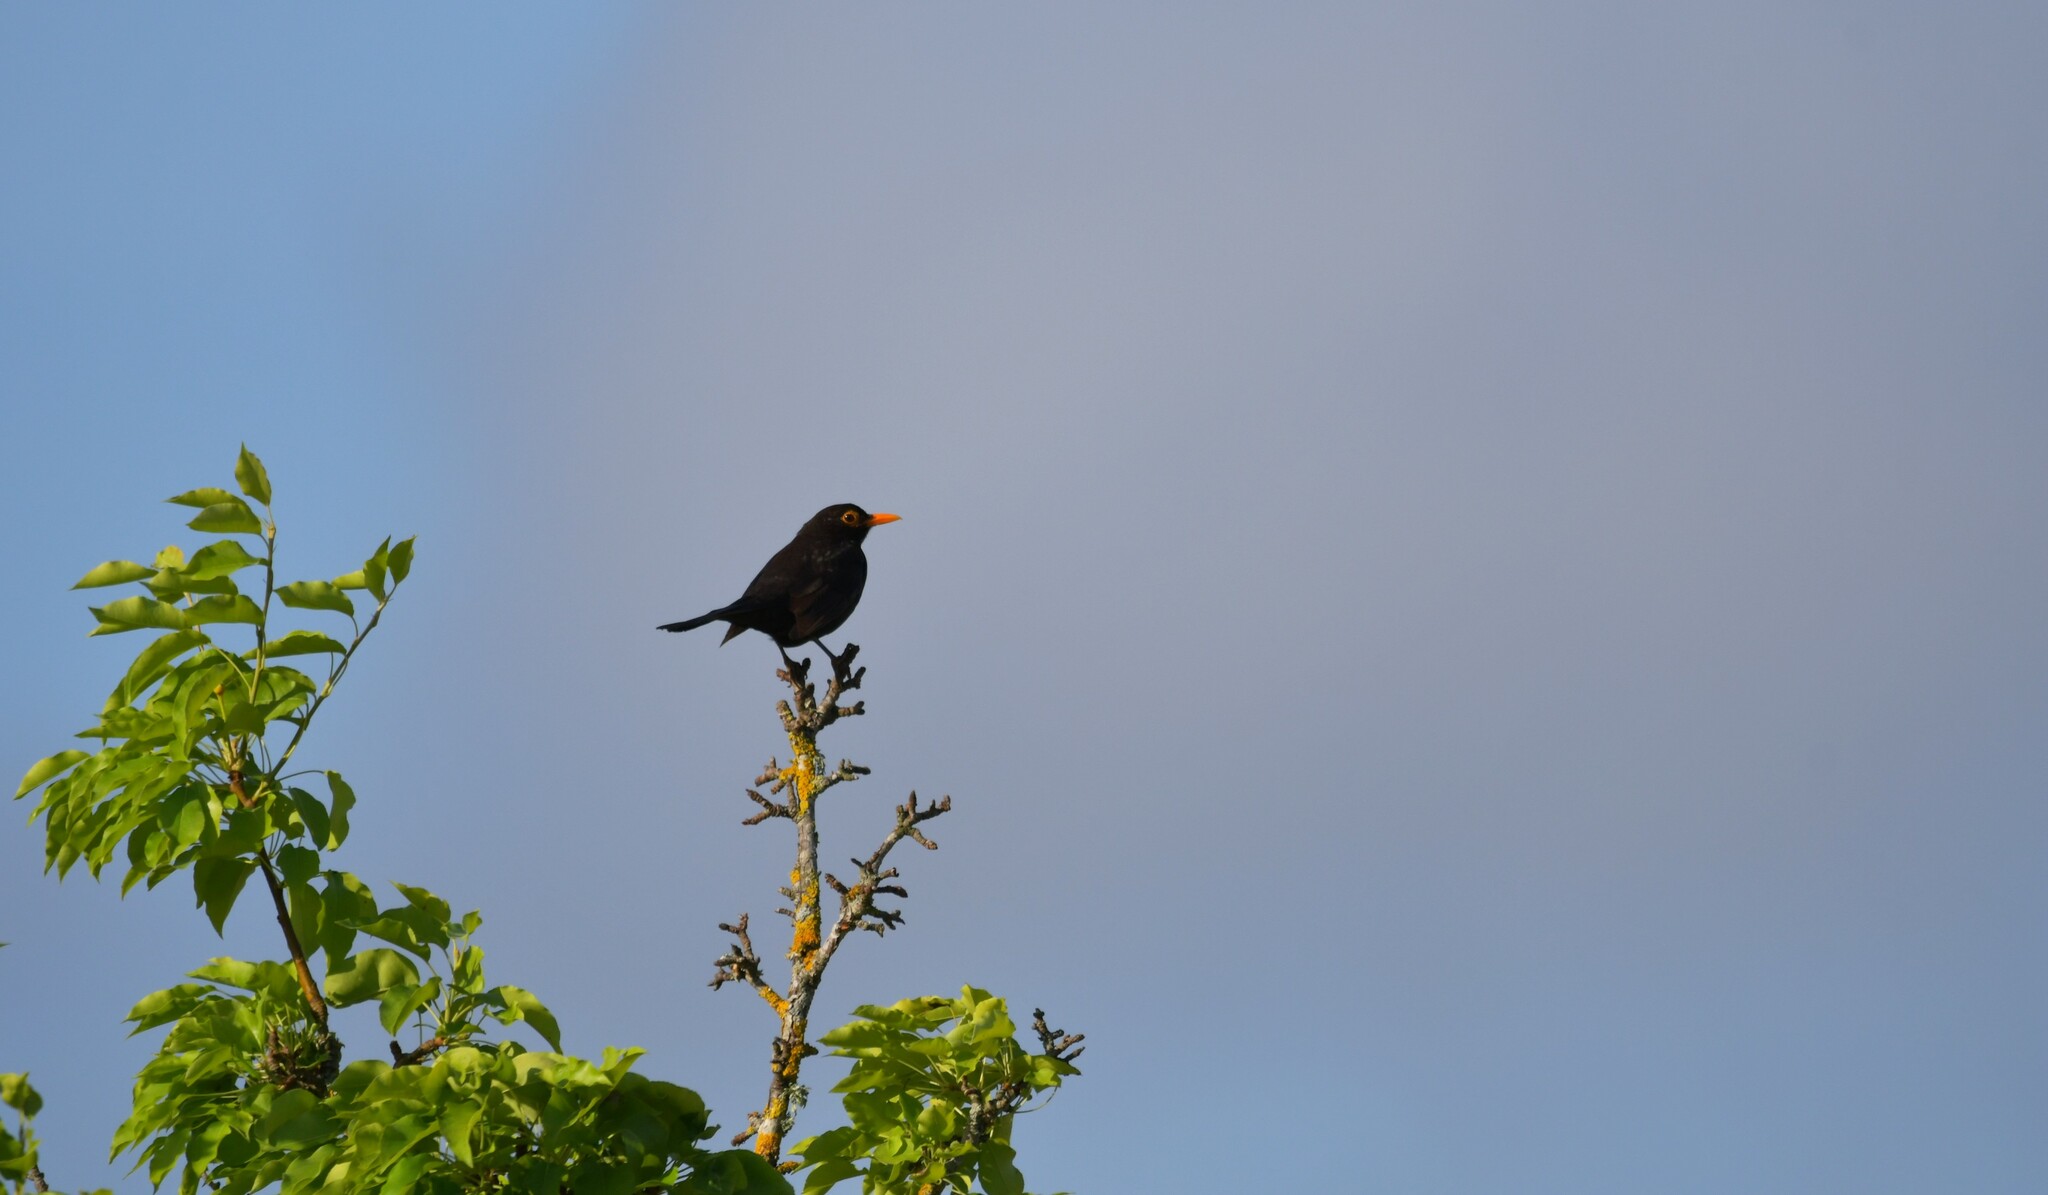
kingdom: Animalia
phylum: Chordata
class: Aves
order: Passeriformes
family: Turdidae
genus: Turdus
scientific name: Turdus merula
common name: Common blackbird
